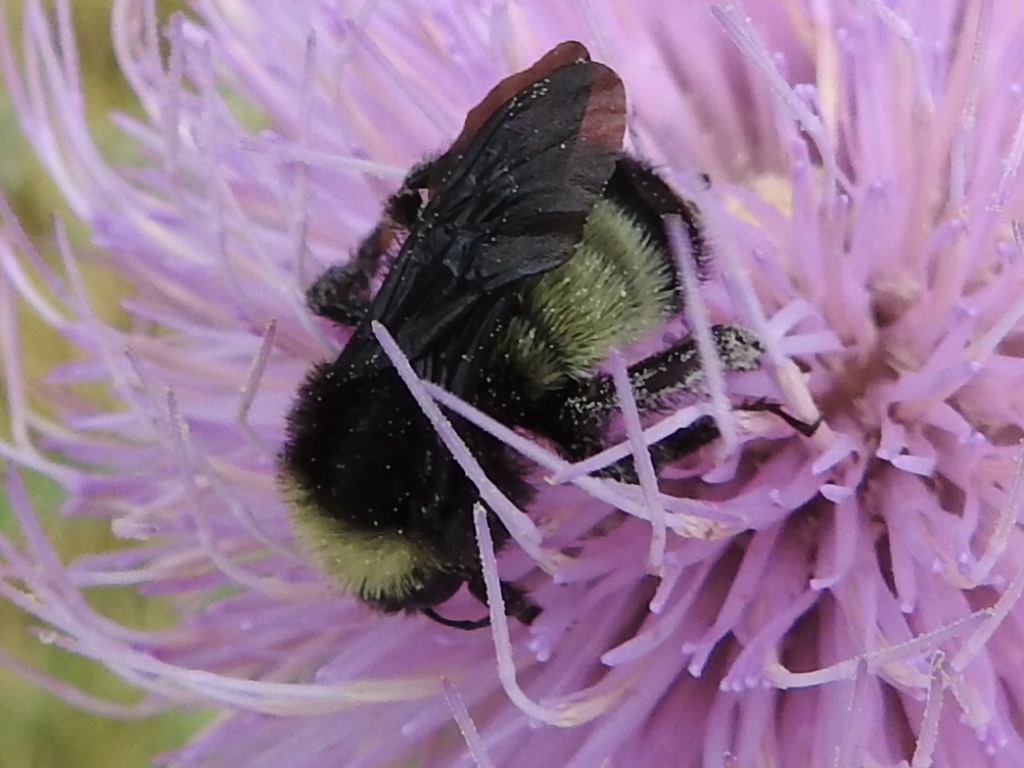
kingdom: Animalia
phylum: Arthropoda
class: Insecta
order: Hymenoptera
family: Apidae
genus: Bombus
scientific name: Bombus pensylvanicus
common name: Bumble bee
